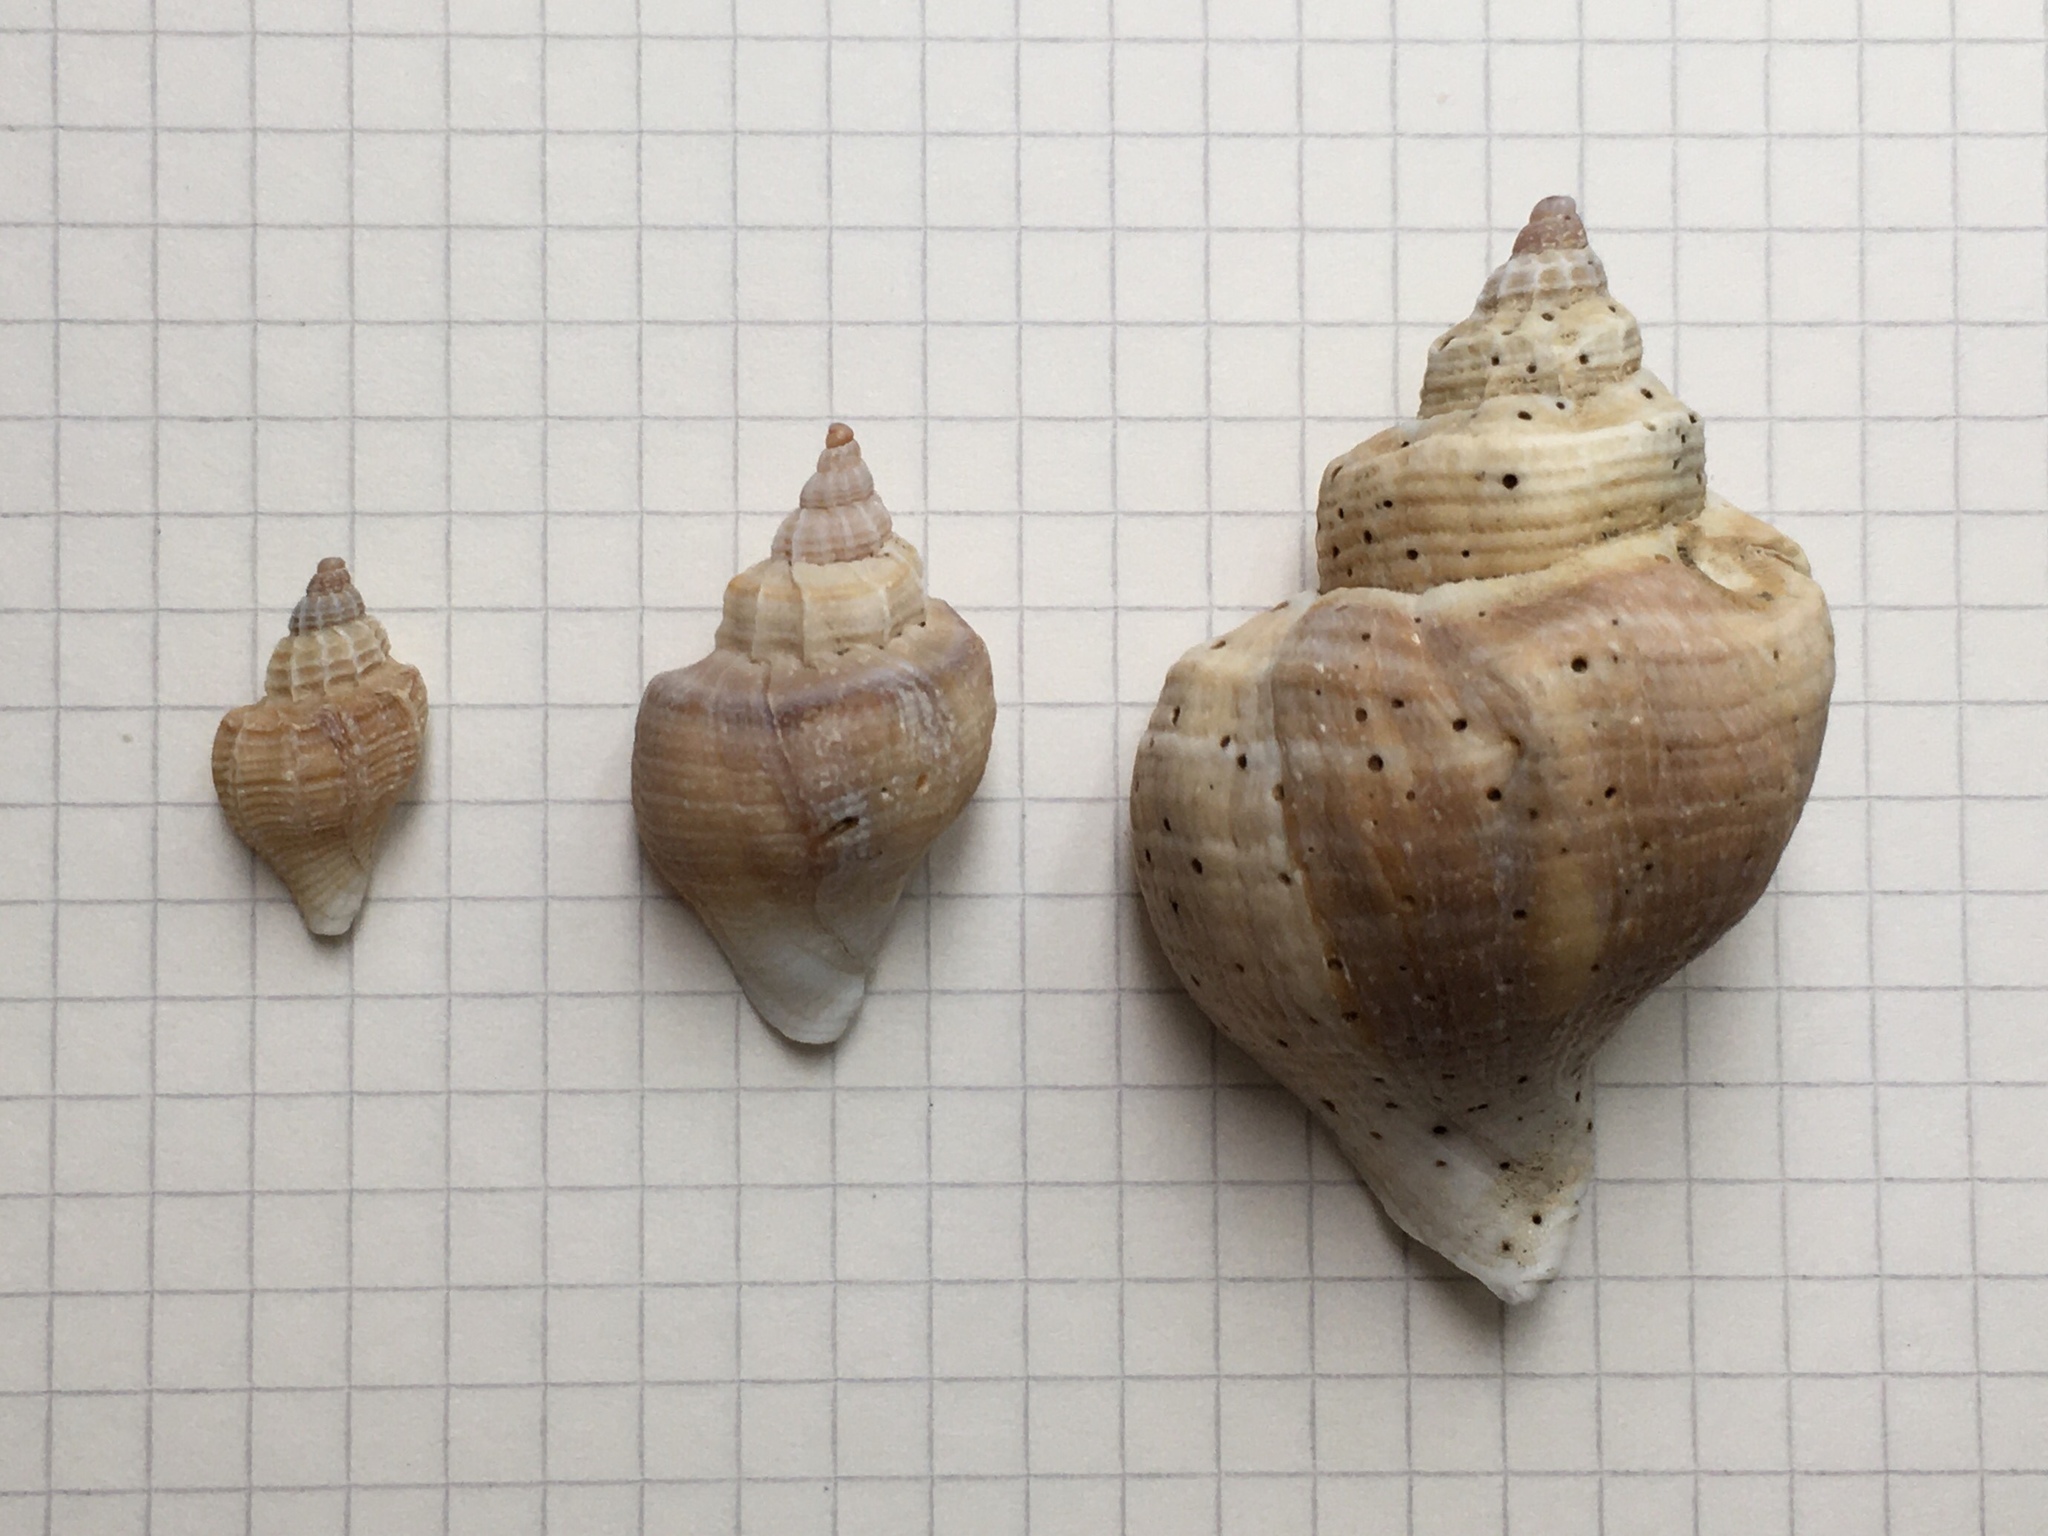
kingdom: Animalia
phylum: Mollusca
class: Gastropoda
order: Neogastropoda
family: Muricidae
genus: Trophon
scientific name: Trophon geversianus
